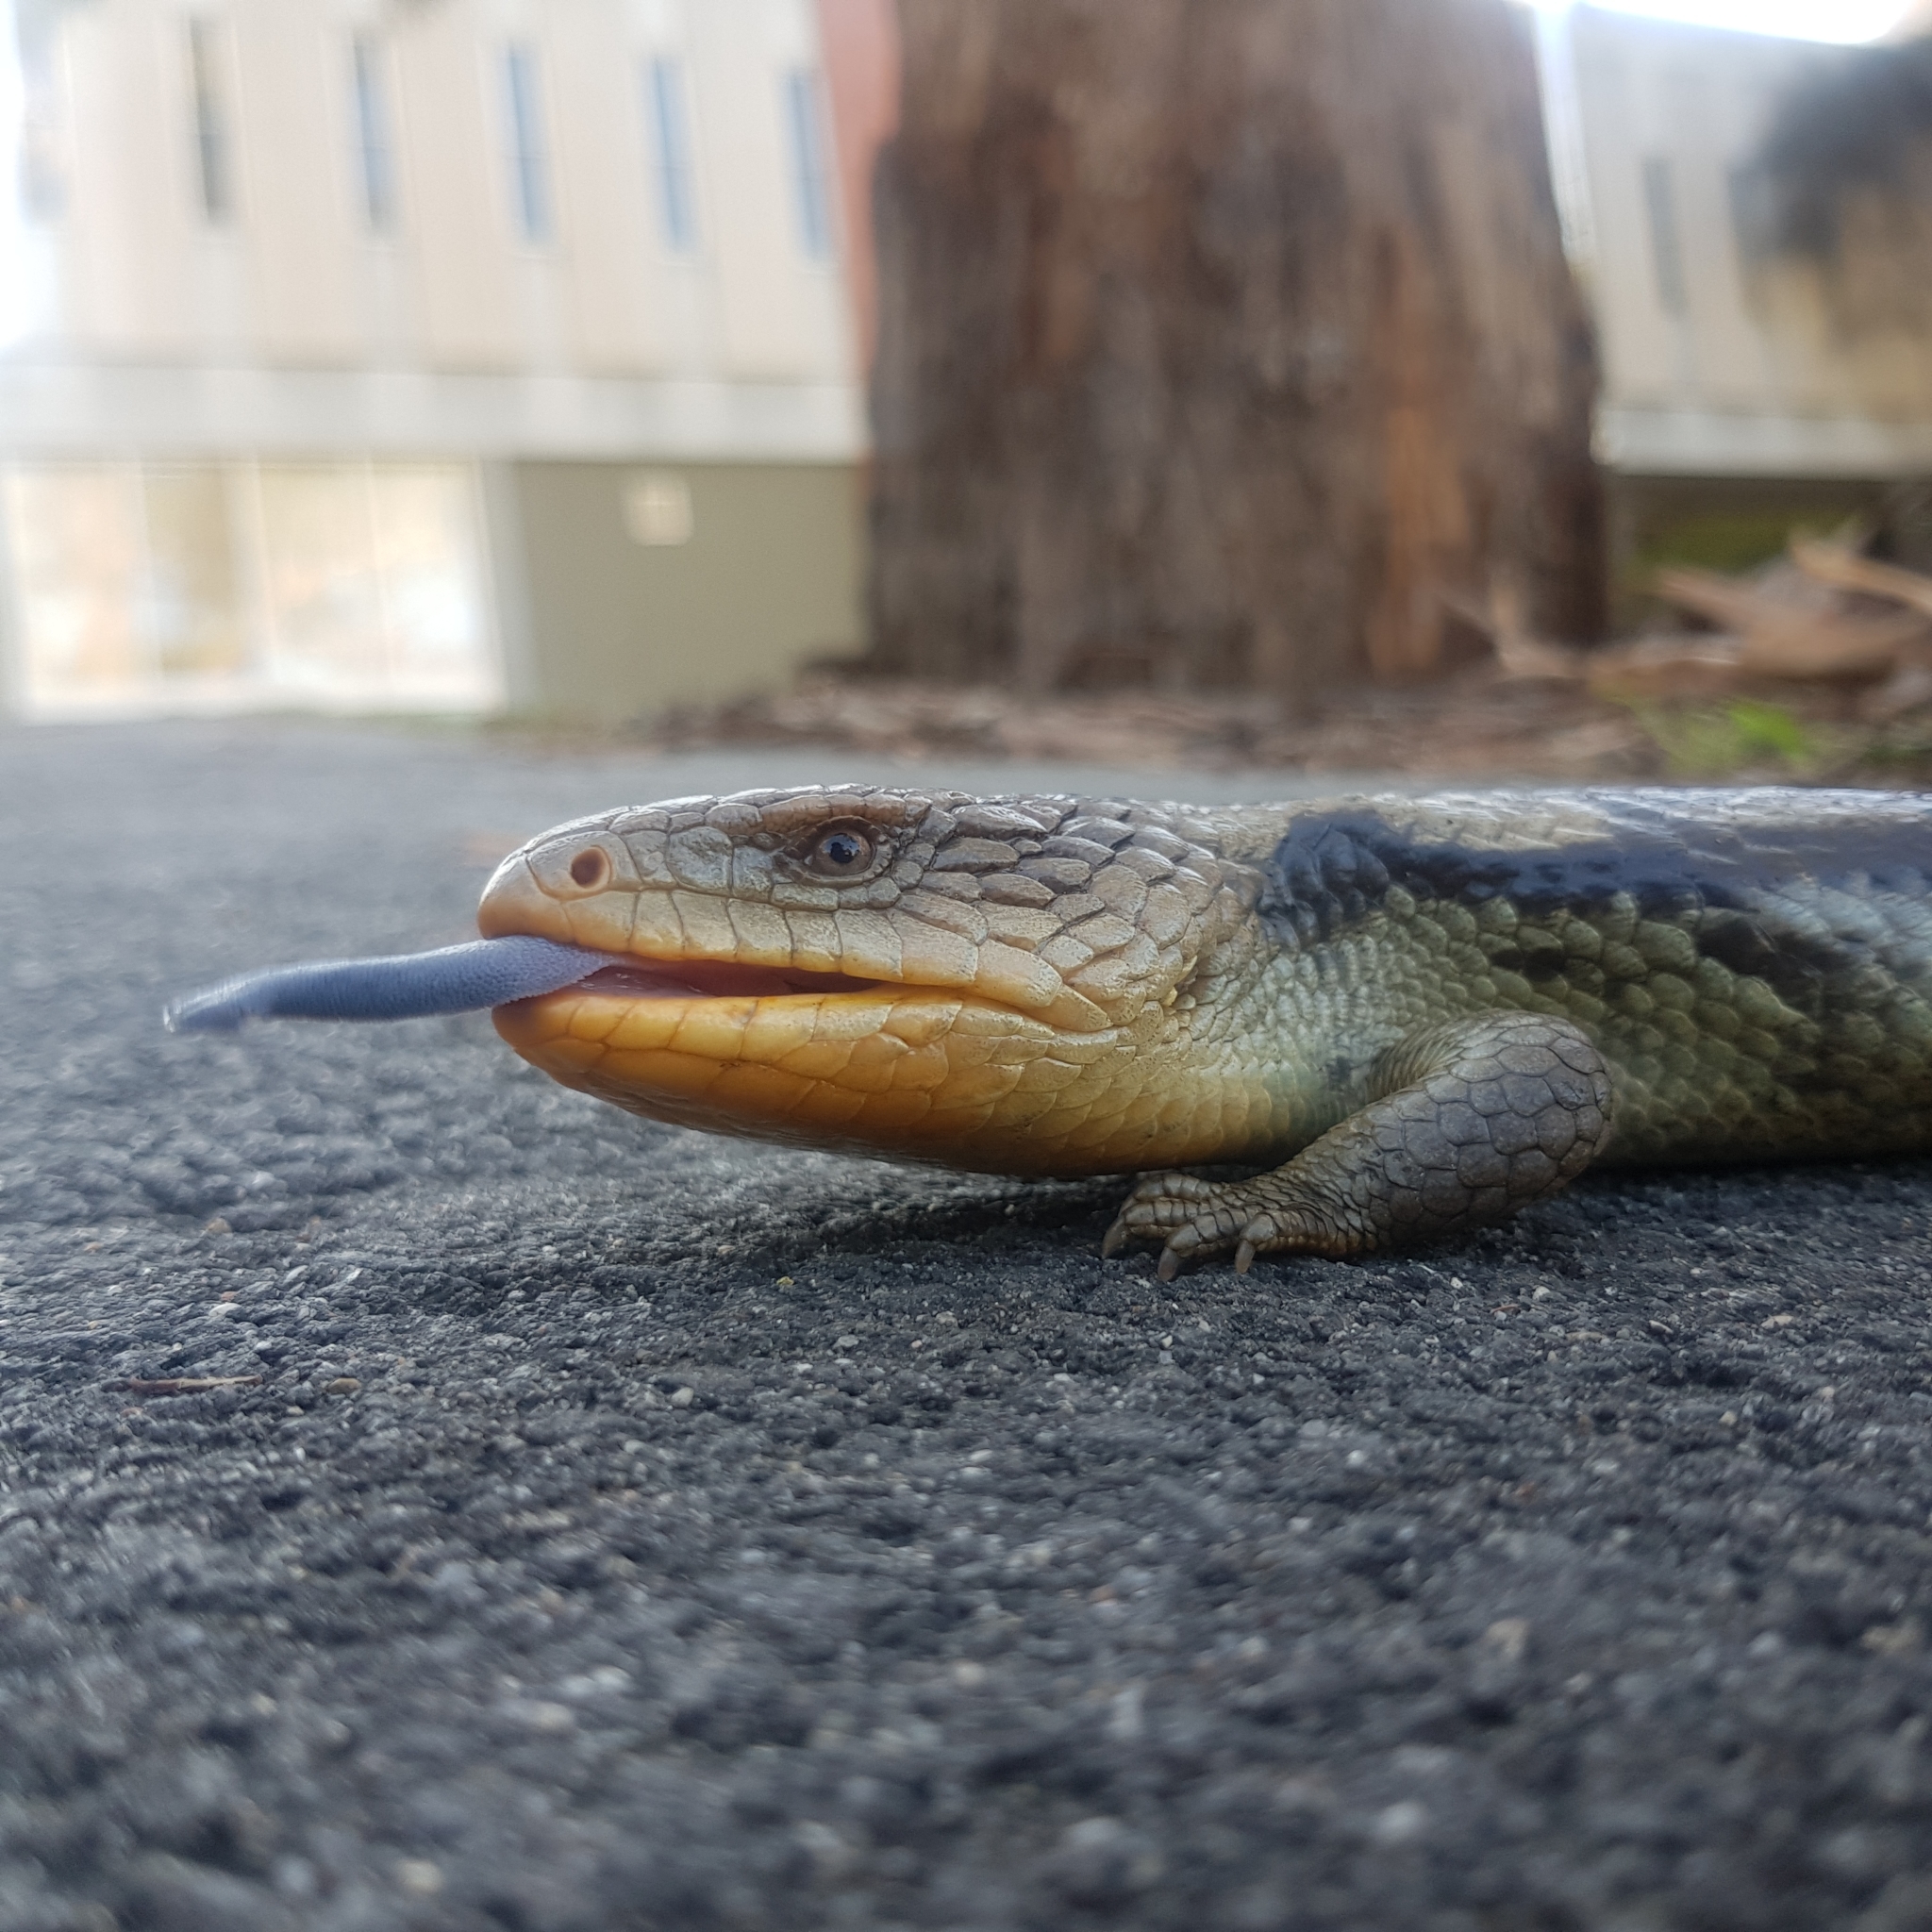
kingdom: Animalia
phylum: Chordata
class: Squamata
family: Scincidae
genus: Tiliqua
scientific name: Tiliqua nigrolutea
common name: Blotched blue-tongued lizard
